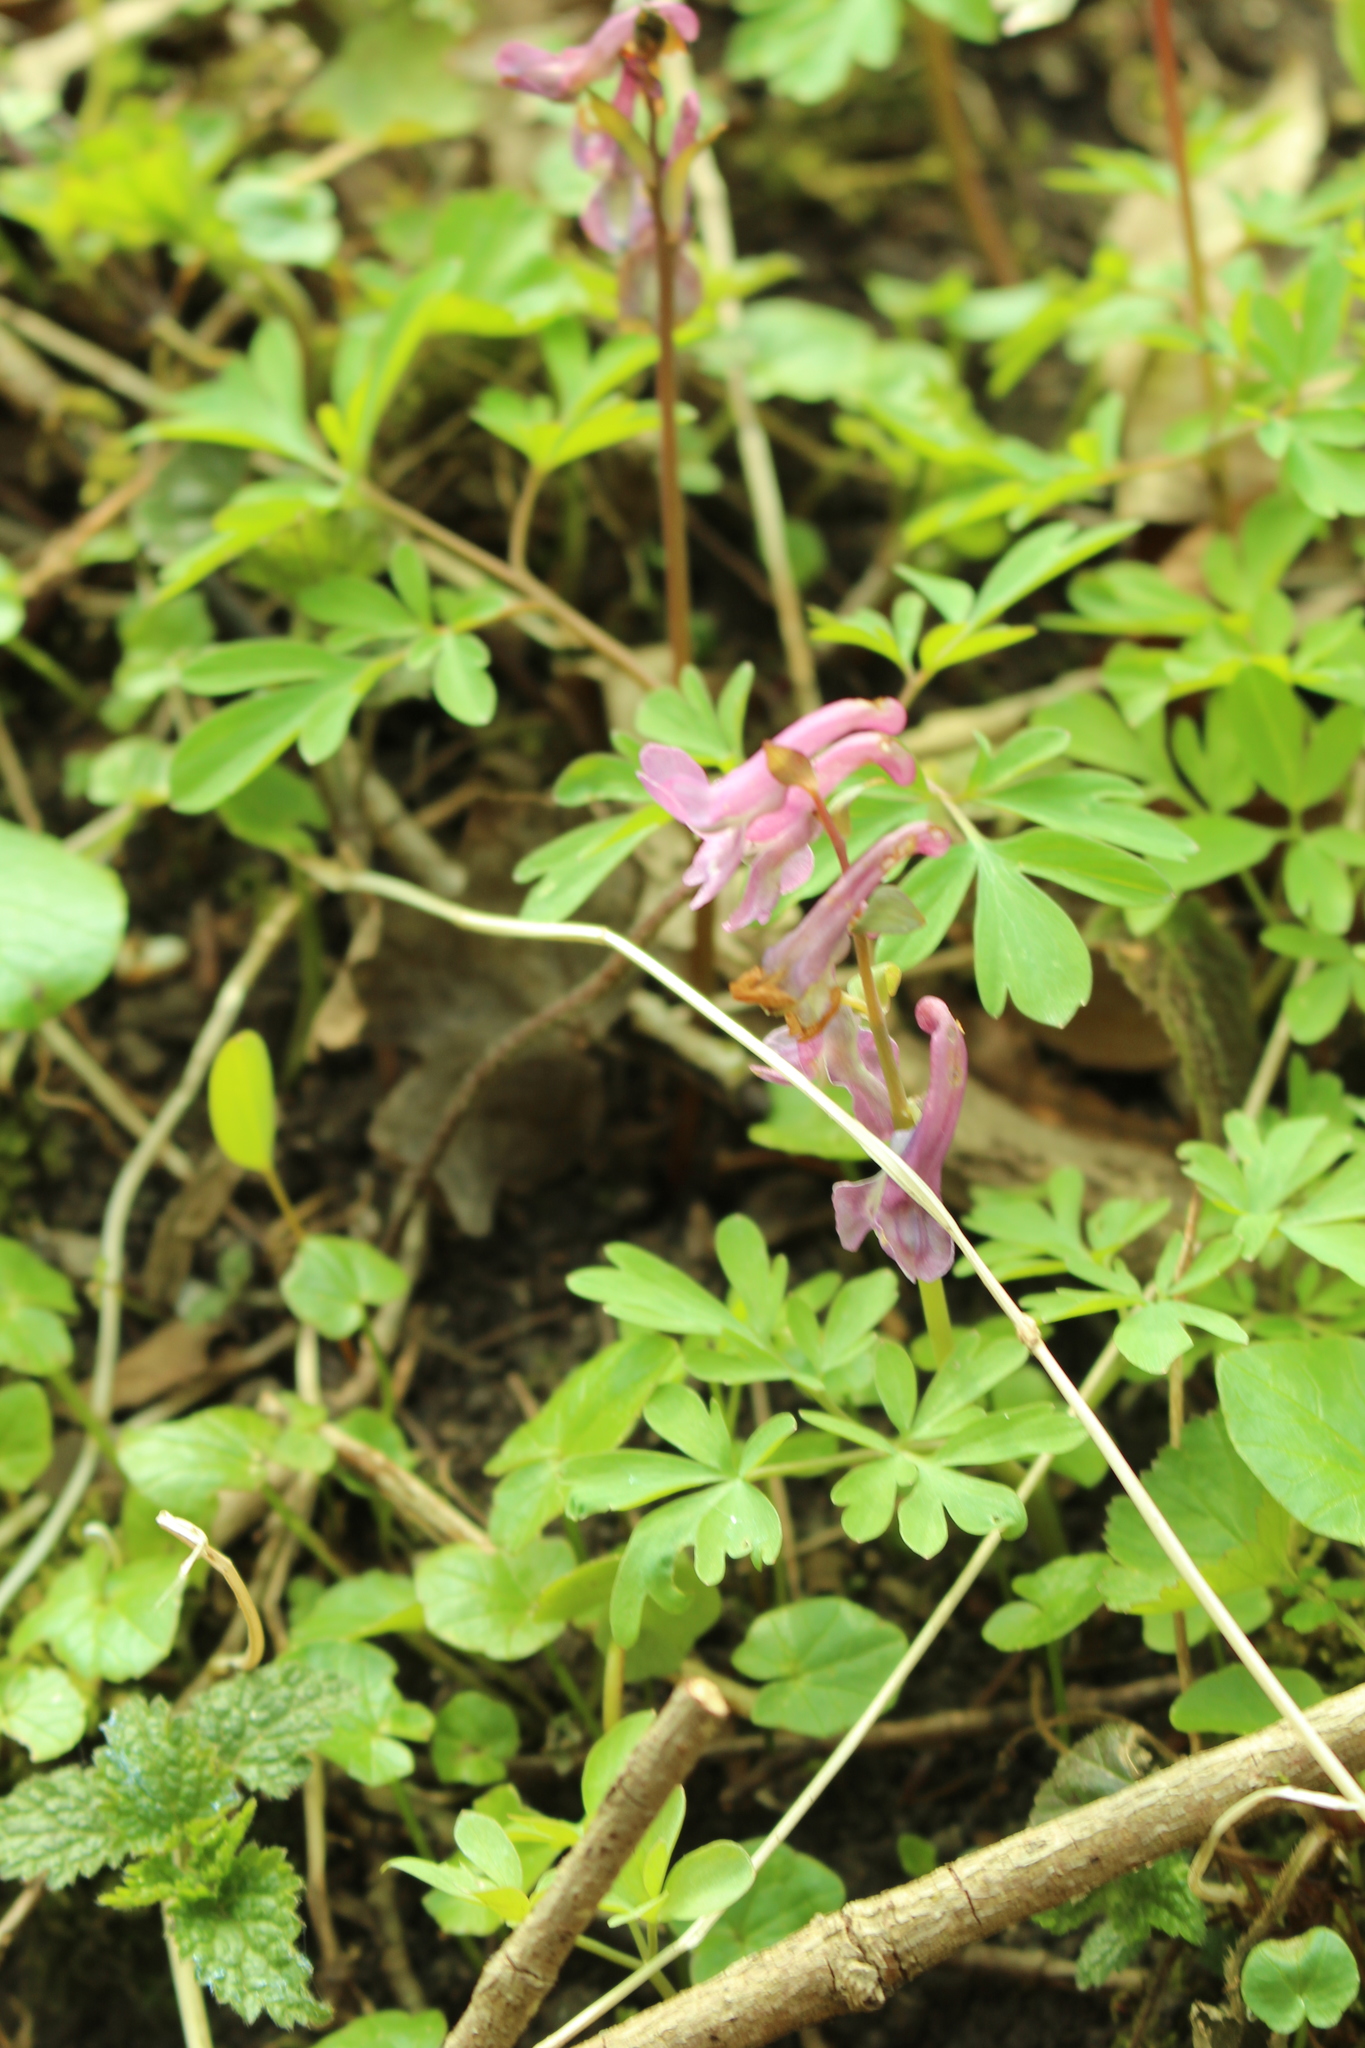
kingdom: Plantae
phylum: Tracheophyta
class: Magnoliopsida
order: Ranunculales
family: Papaveraceae
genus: Corydalis
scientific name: Corydalis cava
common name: Hollowroot
